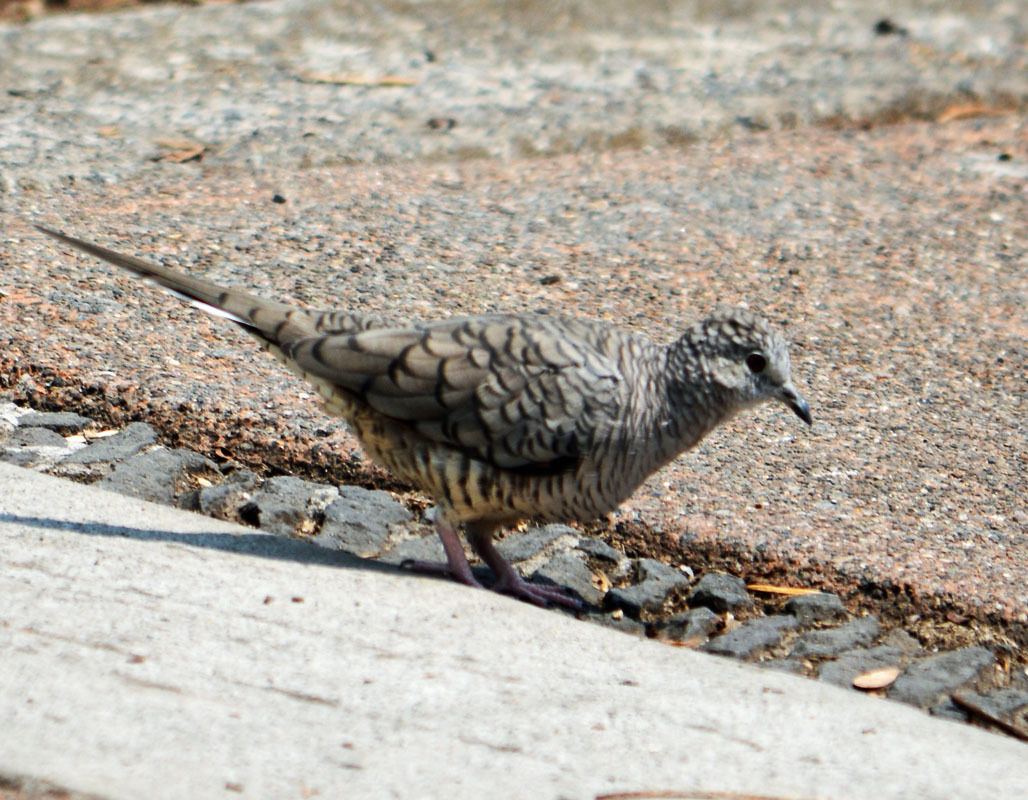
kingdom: Animalia
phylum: Chordata
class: Aves
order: Columbiformes
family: Columbidae
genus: Columbina
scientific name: Columbina inca
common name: Inca dove
